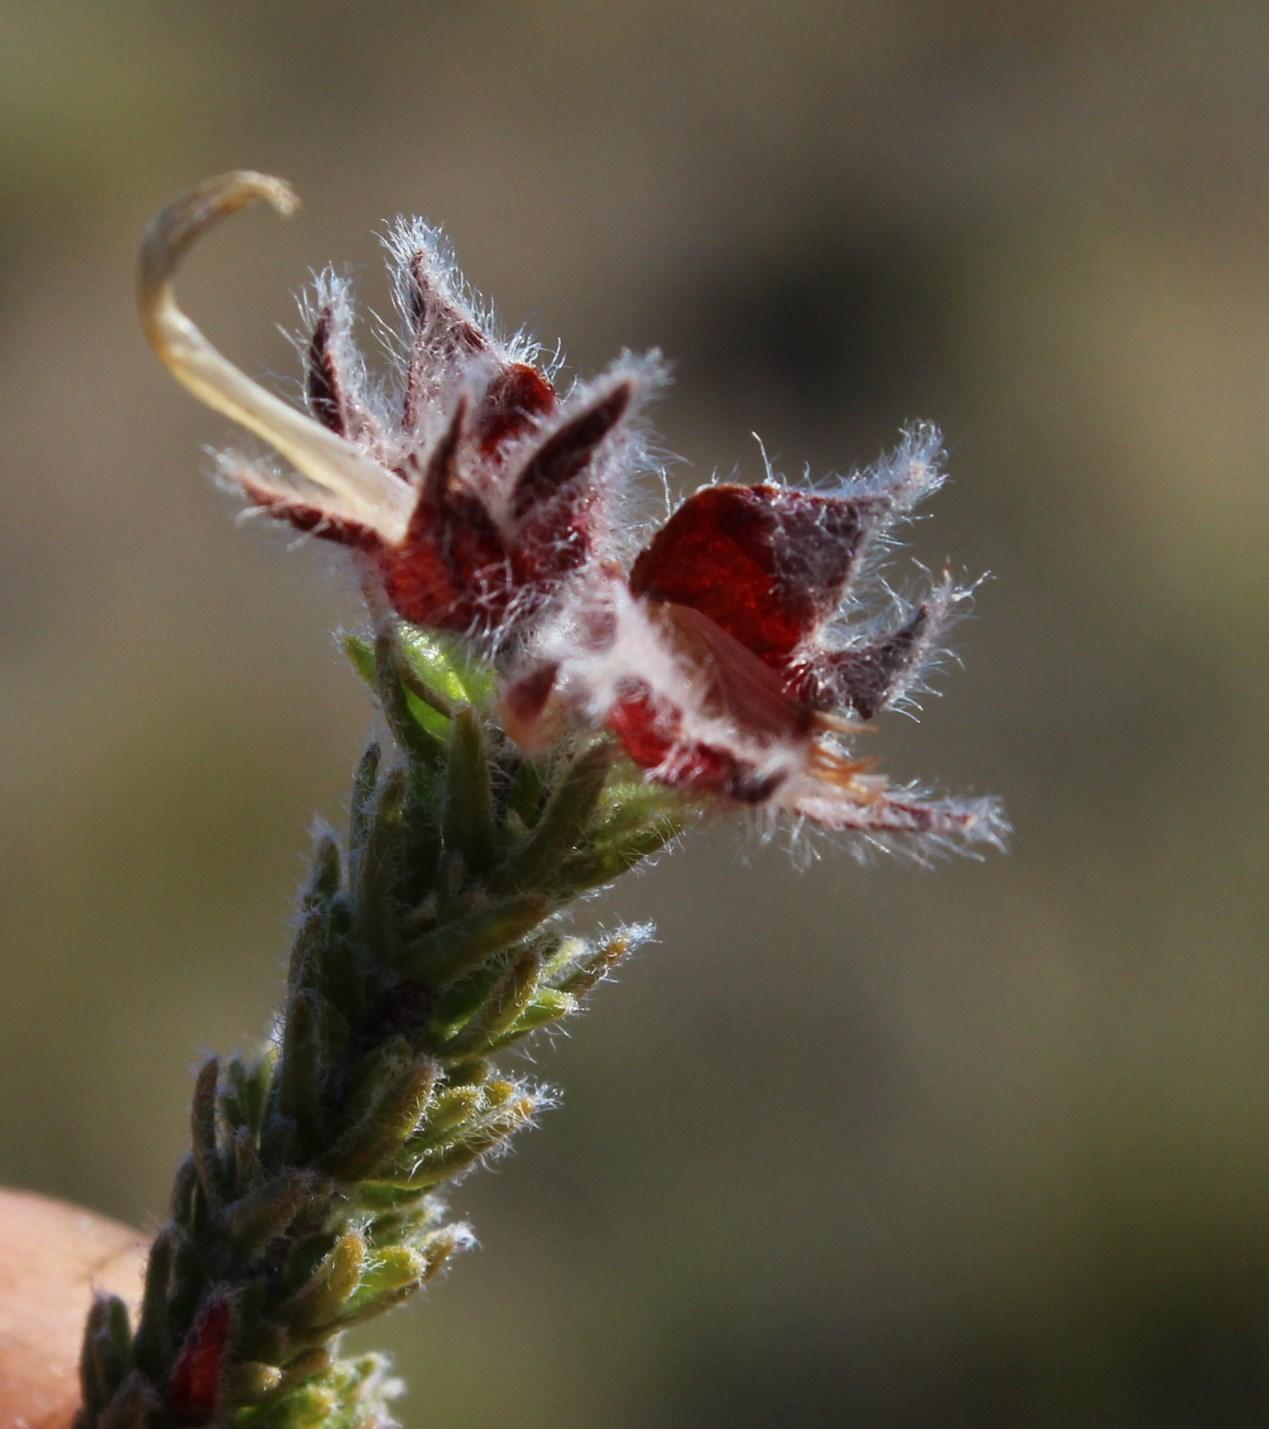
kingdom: Plantae
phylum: Tracheophyta
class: Magnoliopsida
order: Fabales
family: Fabaceae
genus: Aspalathus
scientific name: Aspalathus galeata
